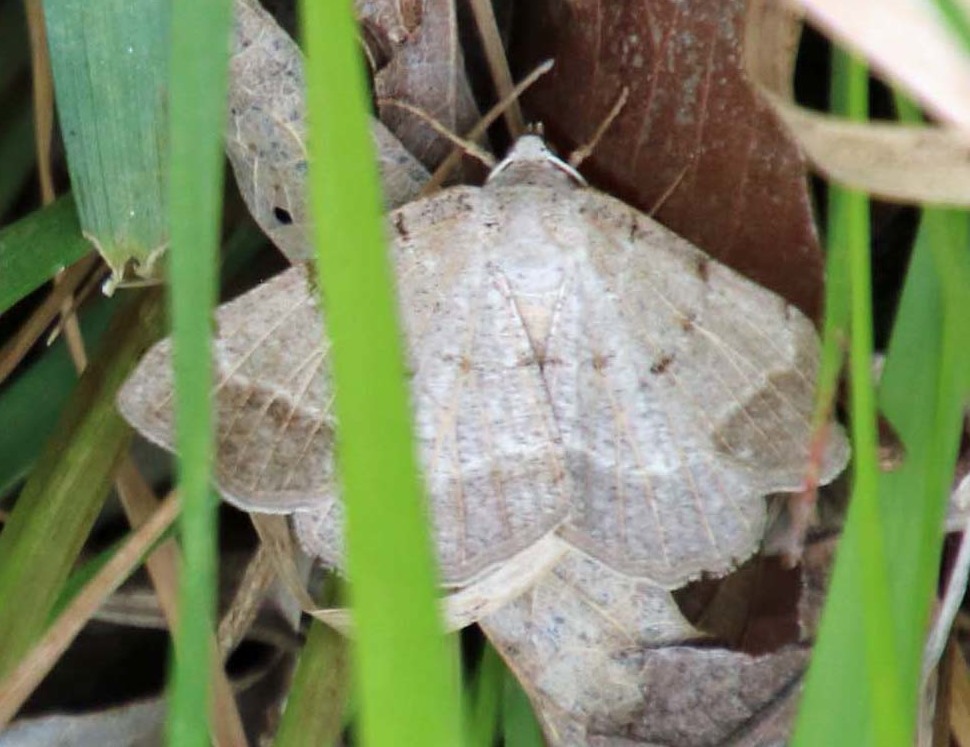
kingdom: Animalia
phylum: Arthropoda
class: Insecta
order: Lepidoptera
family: Geometridae
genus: Isturgia
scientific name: Isturgia dislocaria
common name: Pale-viened enconista
